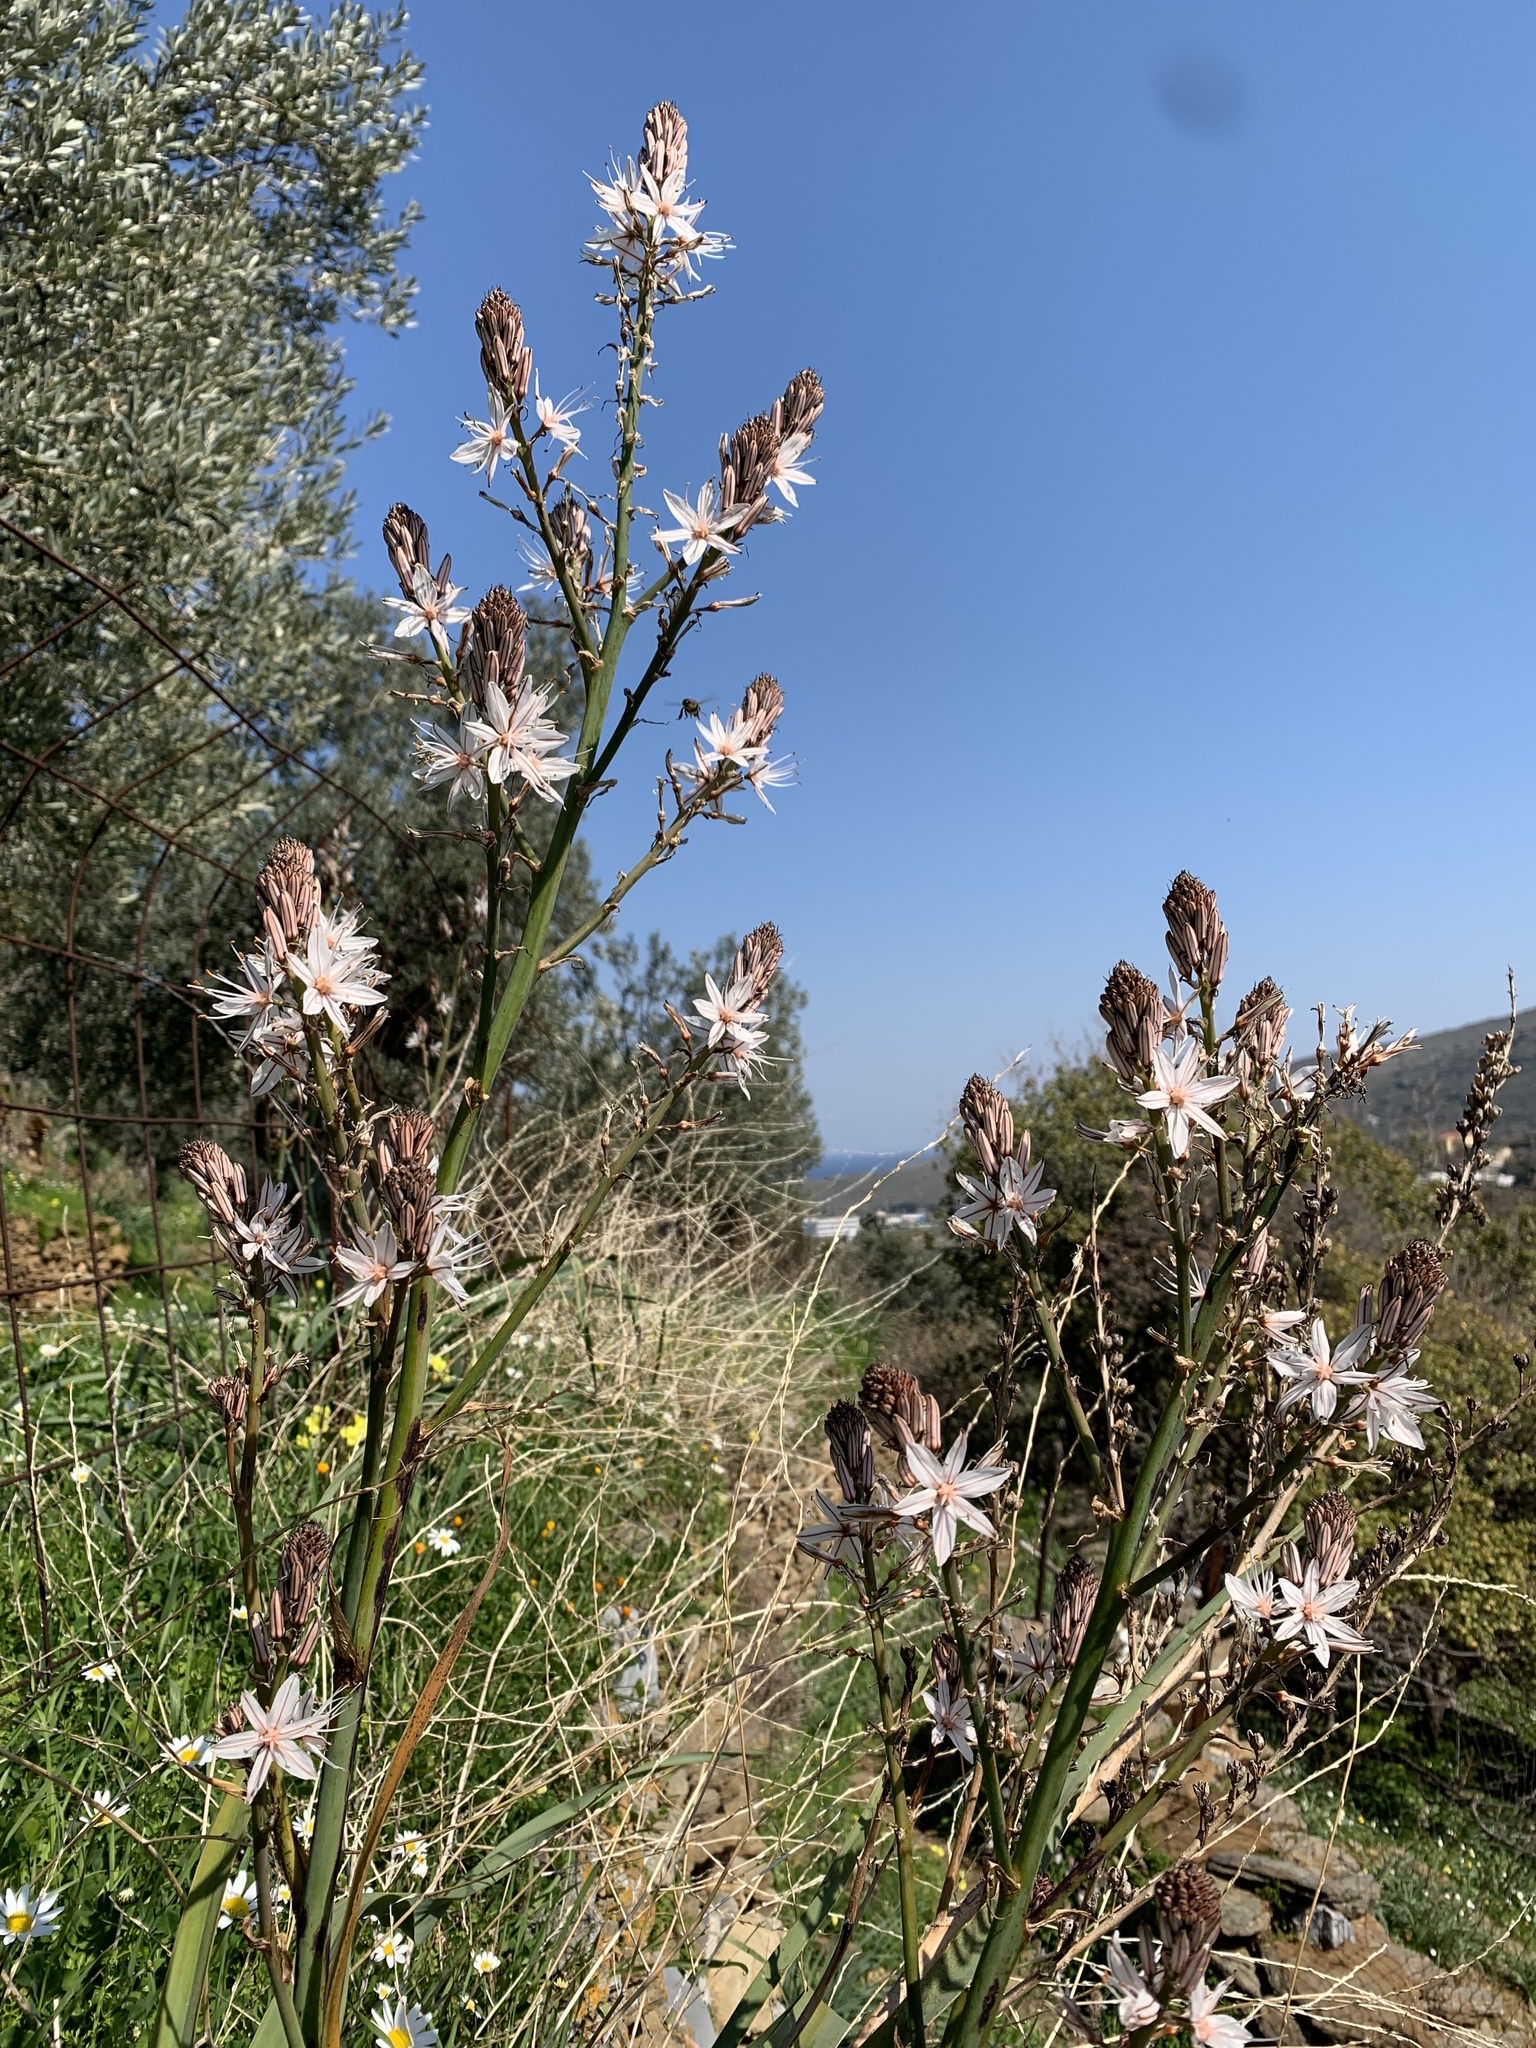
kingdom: Plantae
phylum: Tracheophyta
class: Liliopsida
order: Asparagales
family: Asphodelaceae
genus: Asphodelus
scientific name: Asphodelus ramosus
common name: Silverrod
